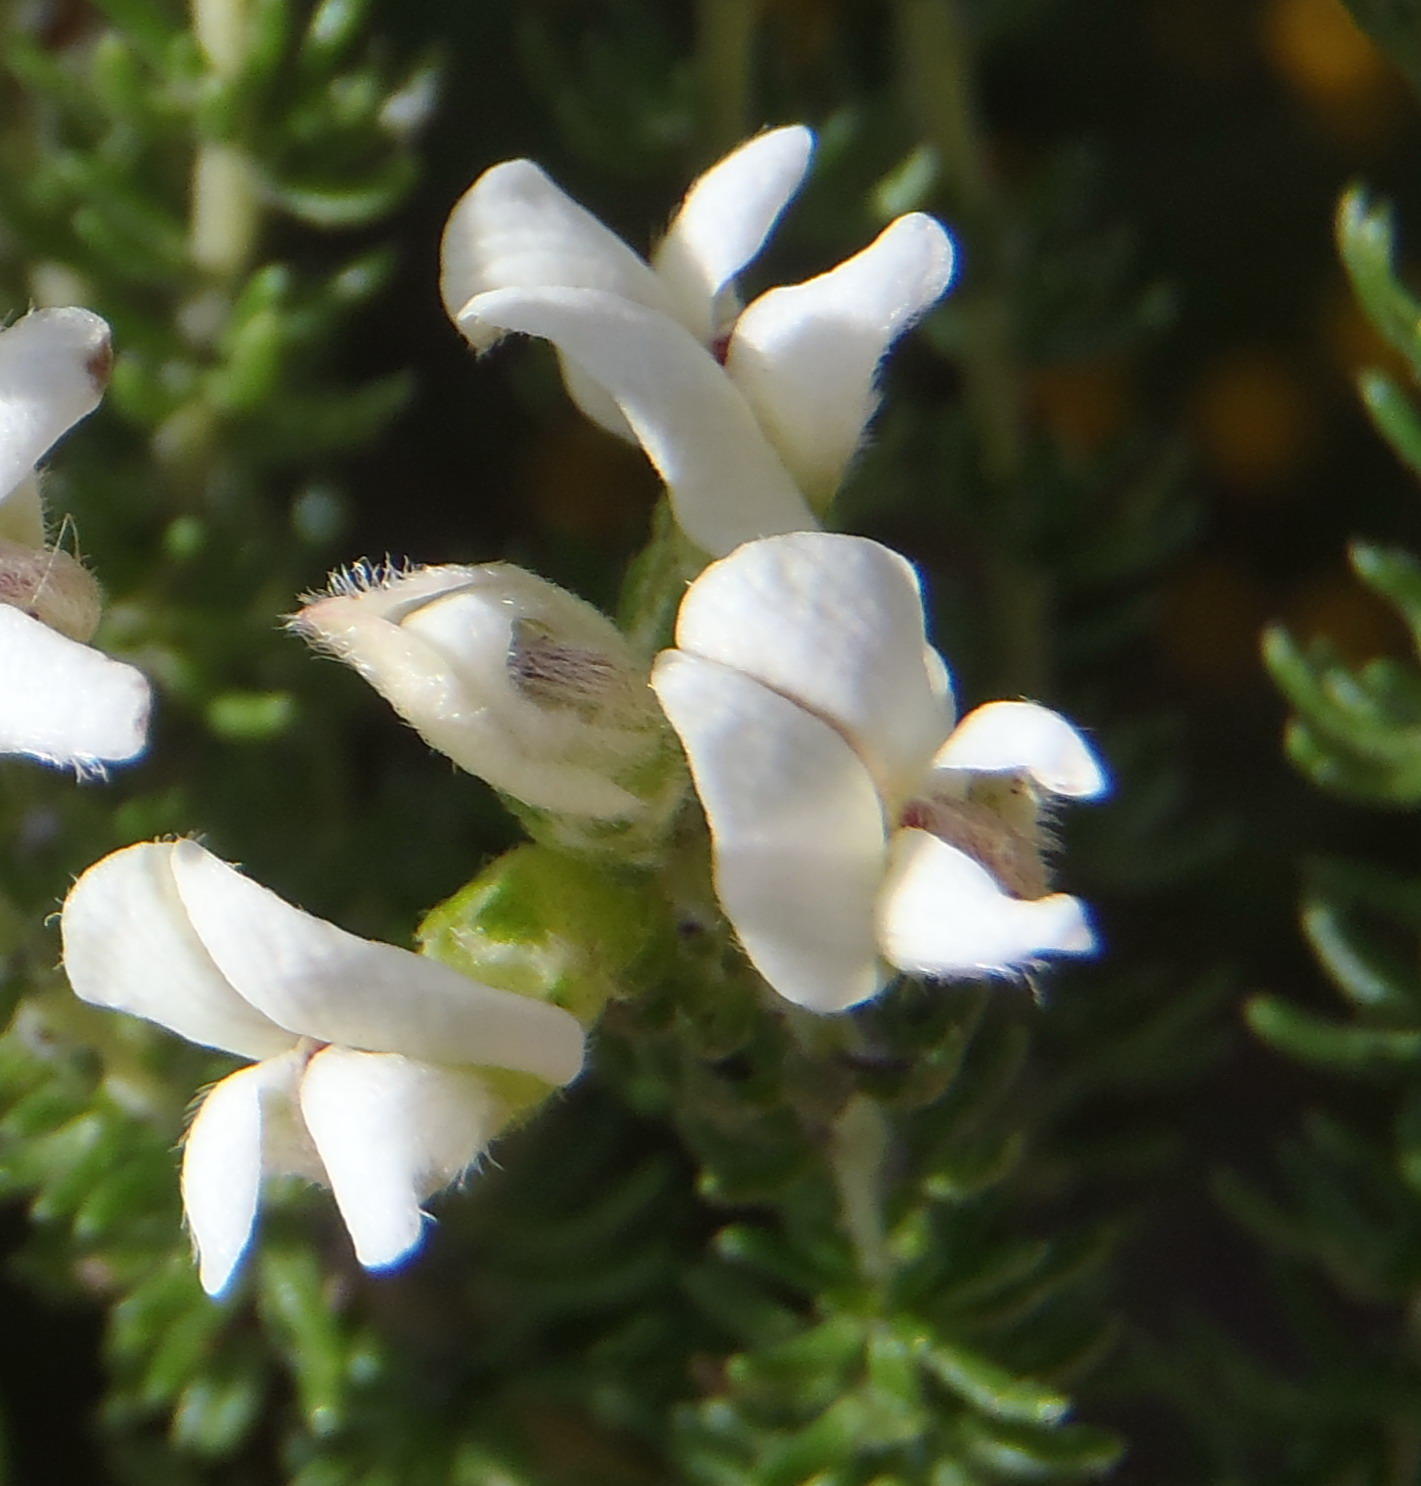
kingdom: Plantae
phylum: Tracheophyta
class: Magnoliopsida
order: Fabales
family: Fabaceae
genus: Aspalathus
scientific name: Aspalathus nigra
